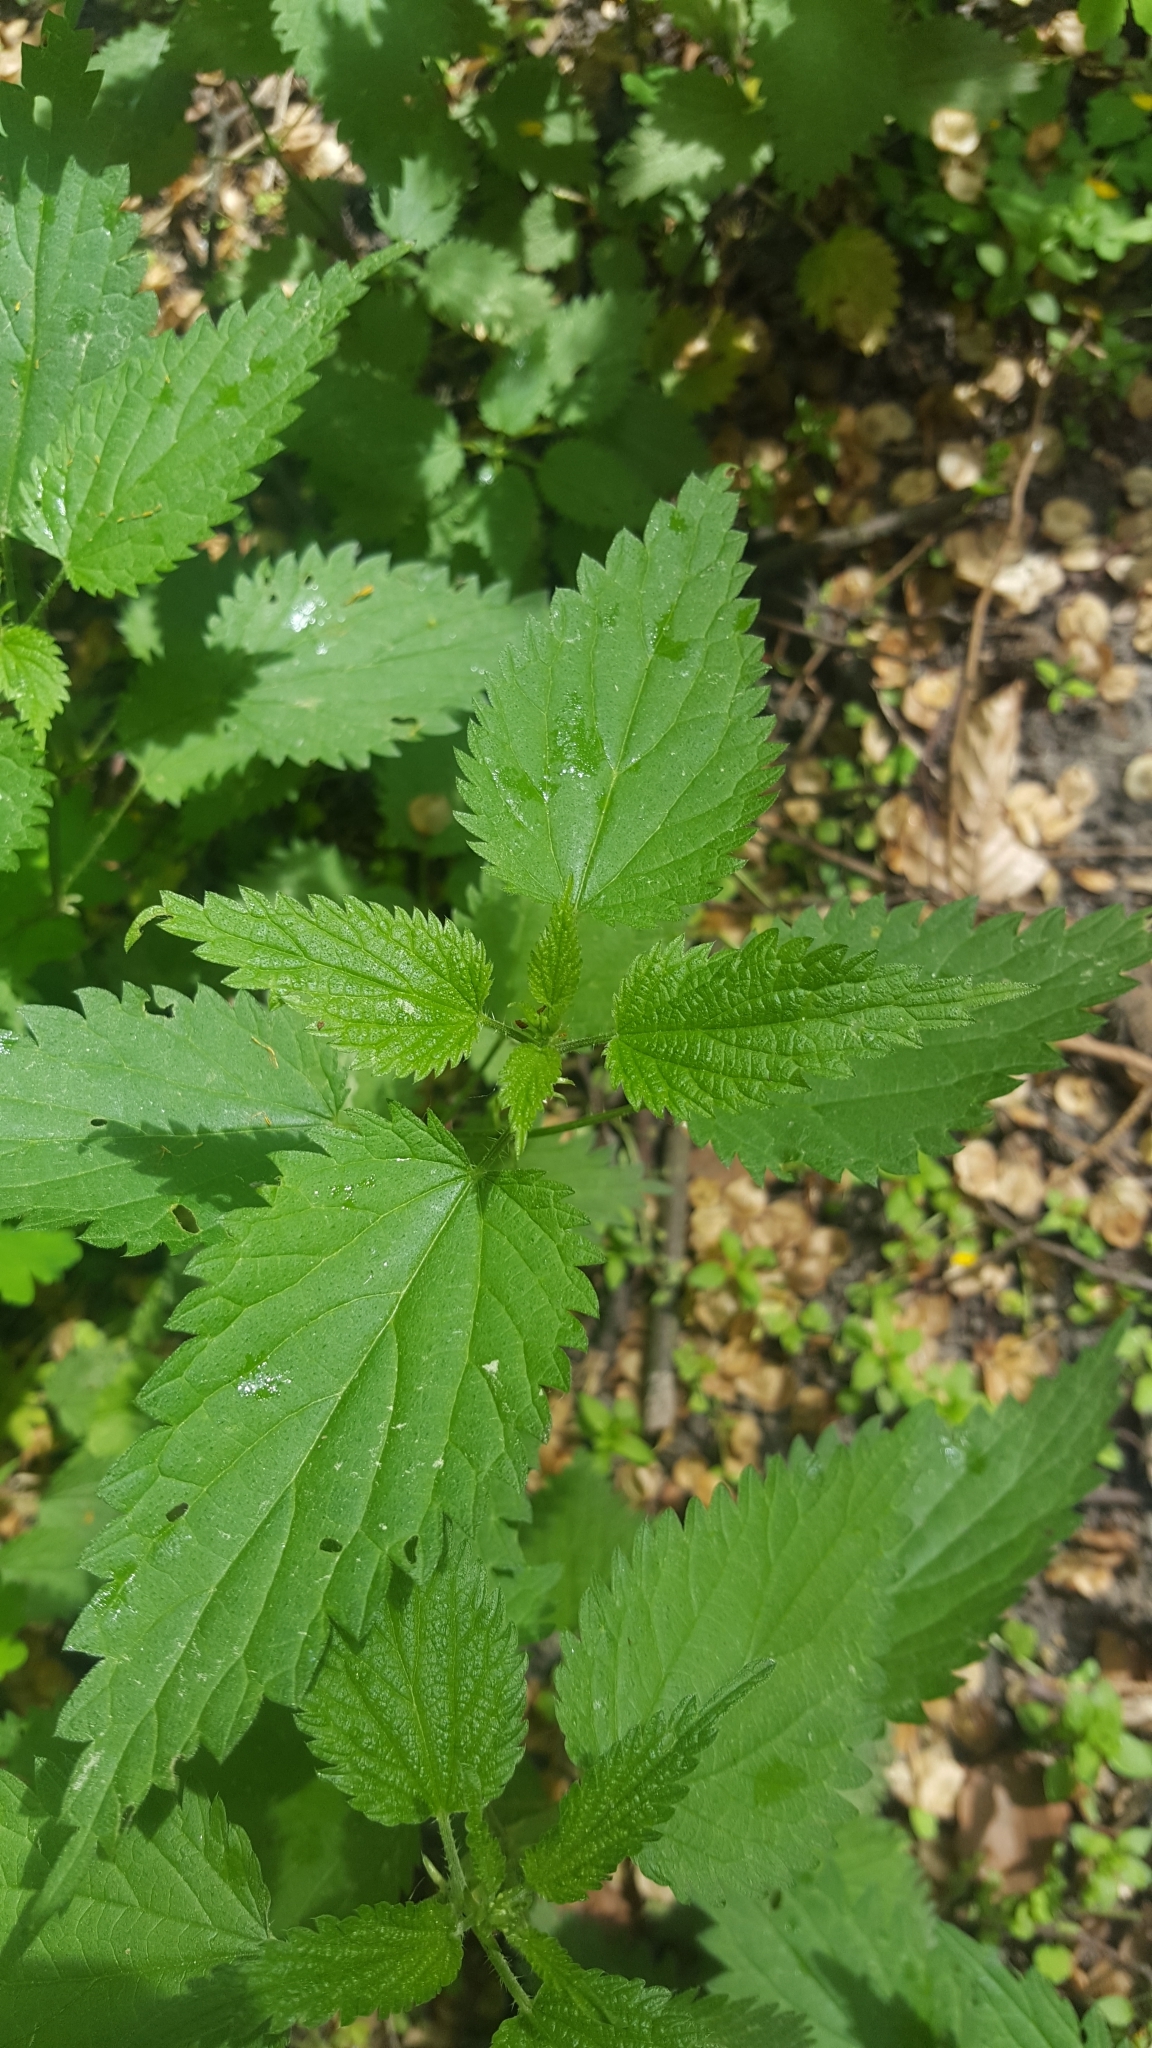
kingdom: Plantae
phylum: Tracheophyta
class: Magnoliopsida
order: Rosales
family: Urticaceae
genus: Urtica
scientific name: Urtica dioica
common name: Common nettle
